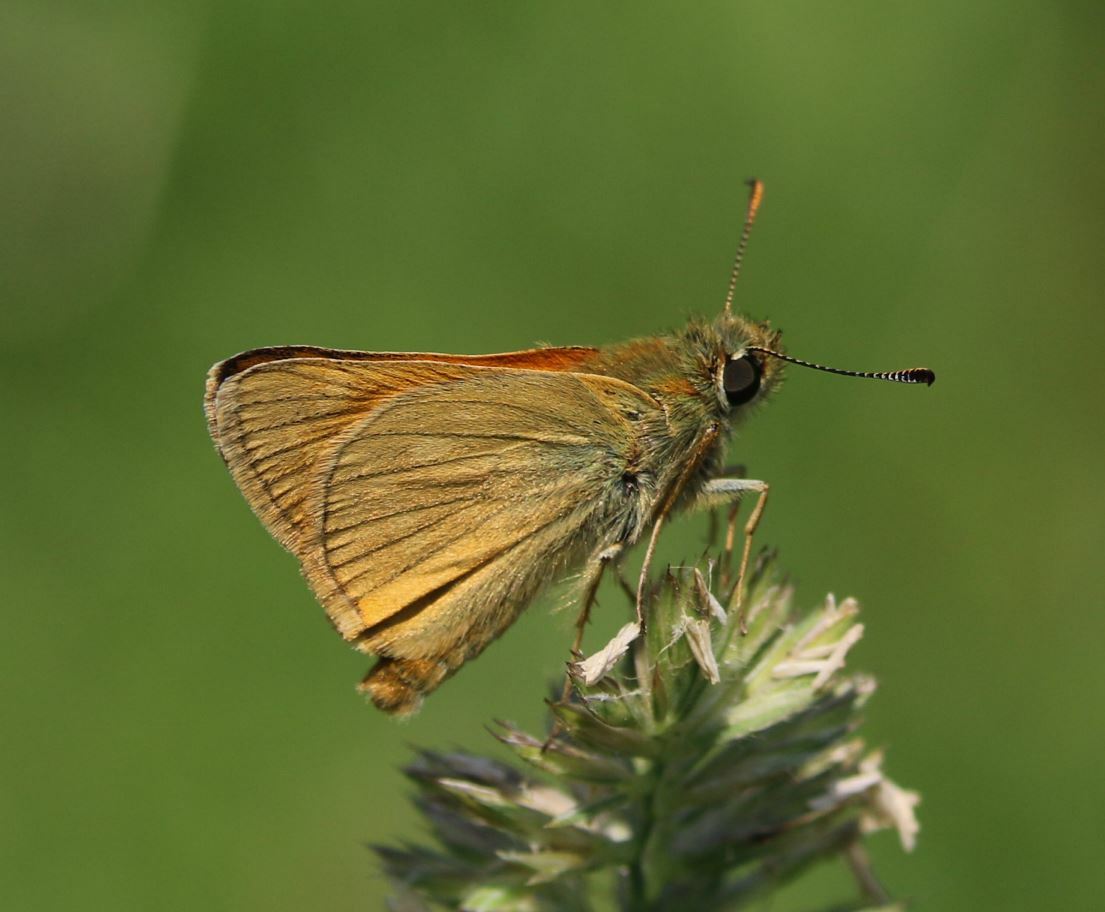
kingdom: Animalia
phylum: Arthropoda
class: Insecta
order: Lepidoptera
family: Hesperiidae
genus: Ochlodes
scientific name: Ochlodes venata
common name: Large skipper
